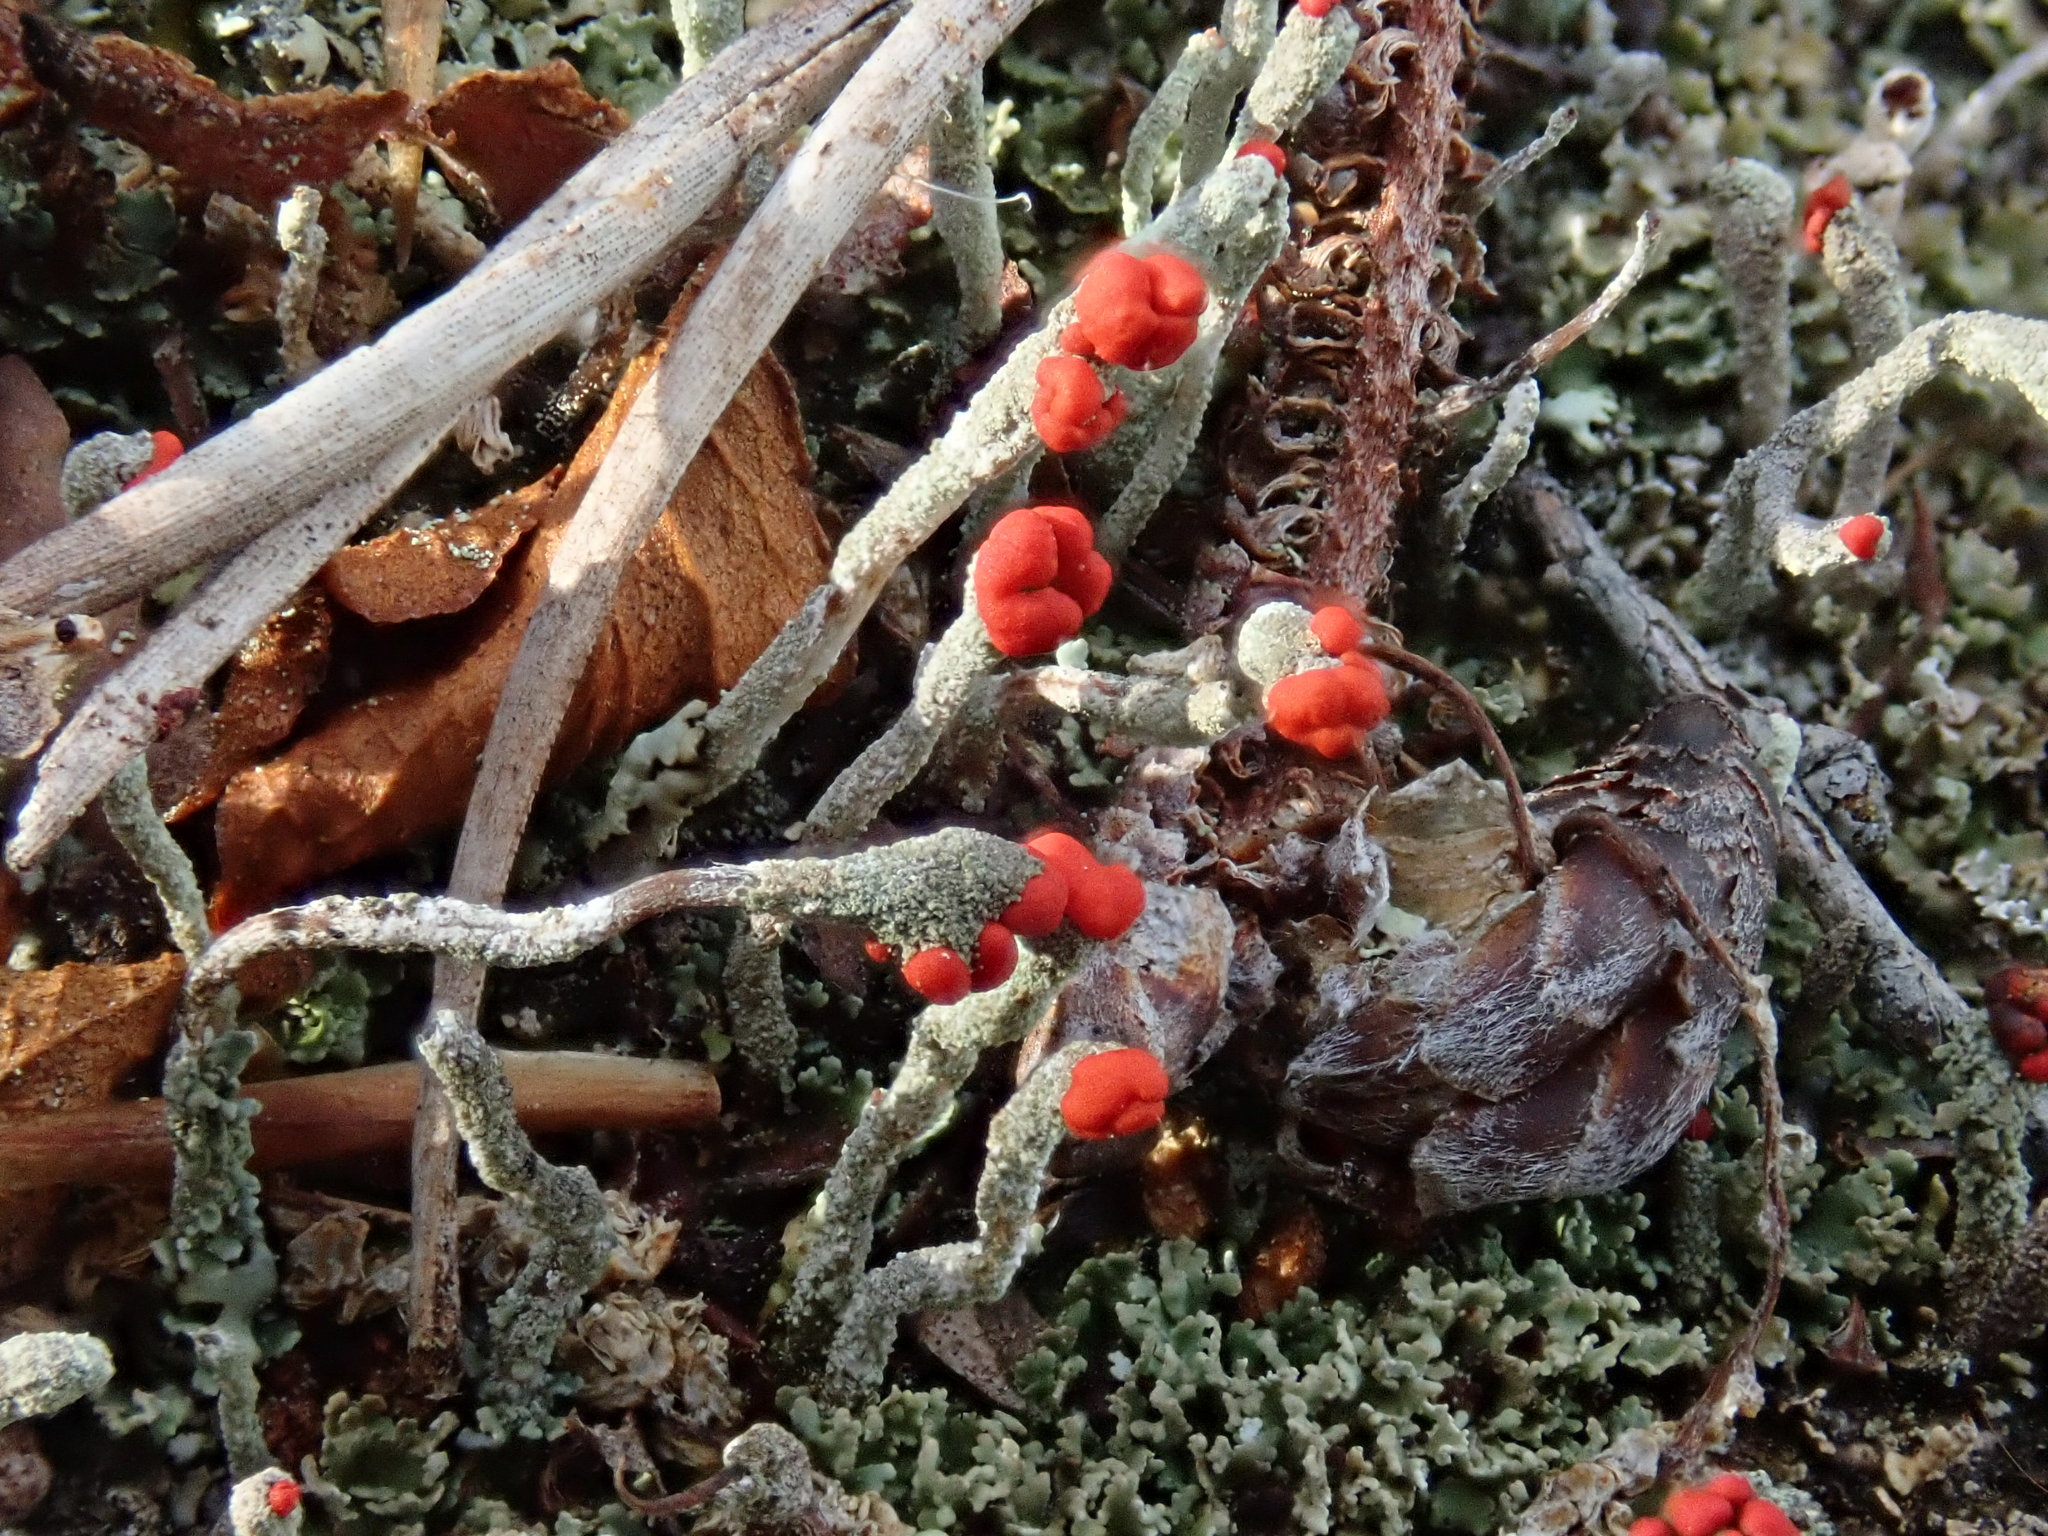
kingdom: Fungi
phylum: Ascomycota
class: Lecanoromycetes
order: Lecanorales
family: Cladoniaceae
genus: Cladonia
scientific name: Cladonia macilenta
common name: Lipstick powderhorn
